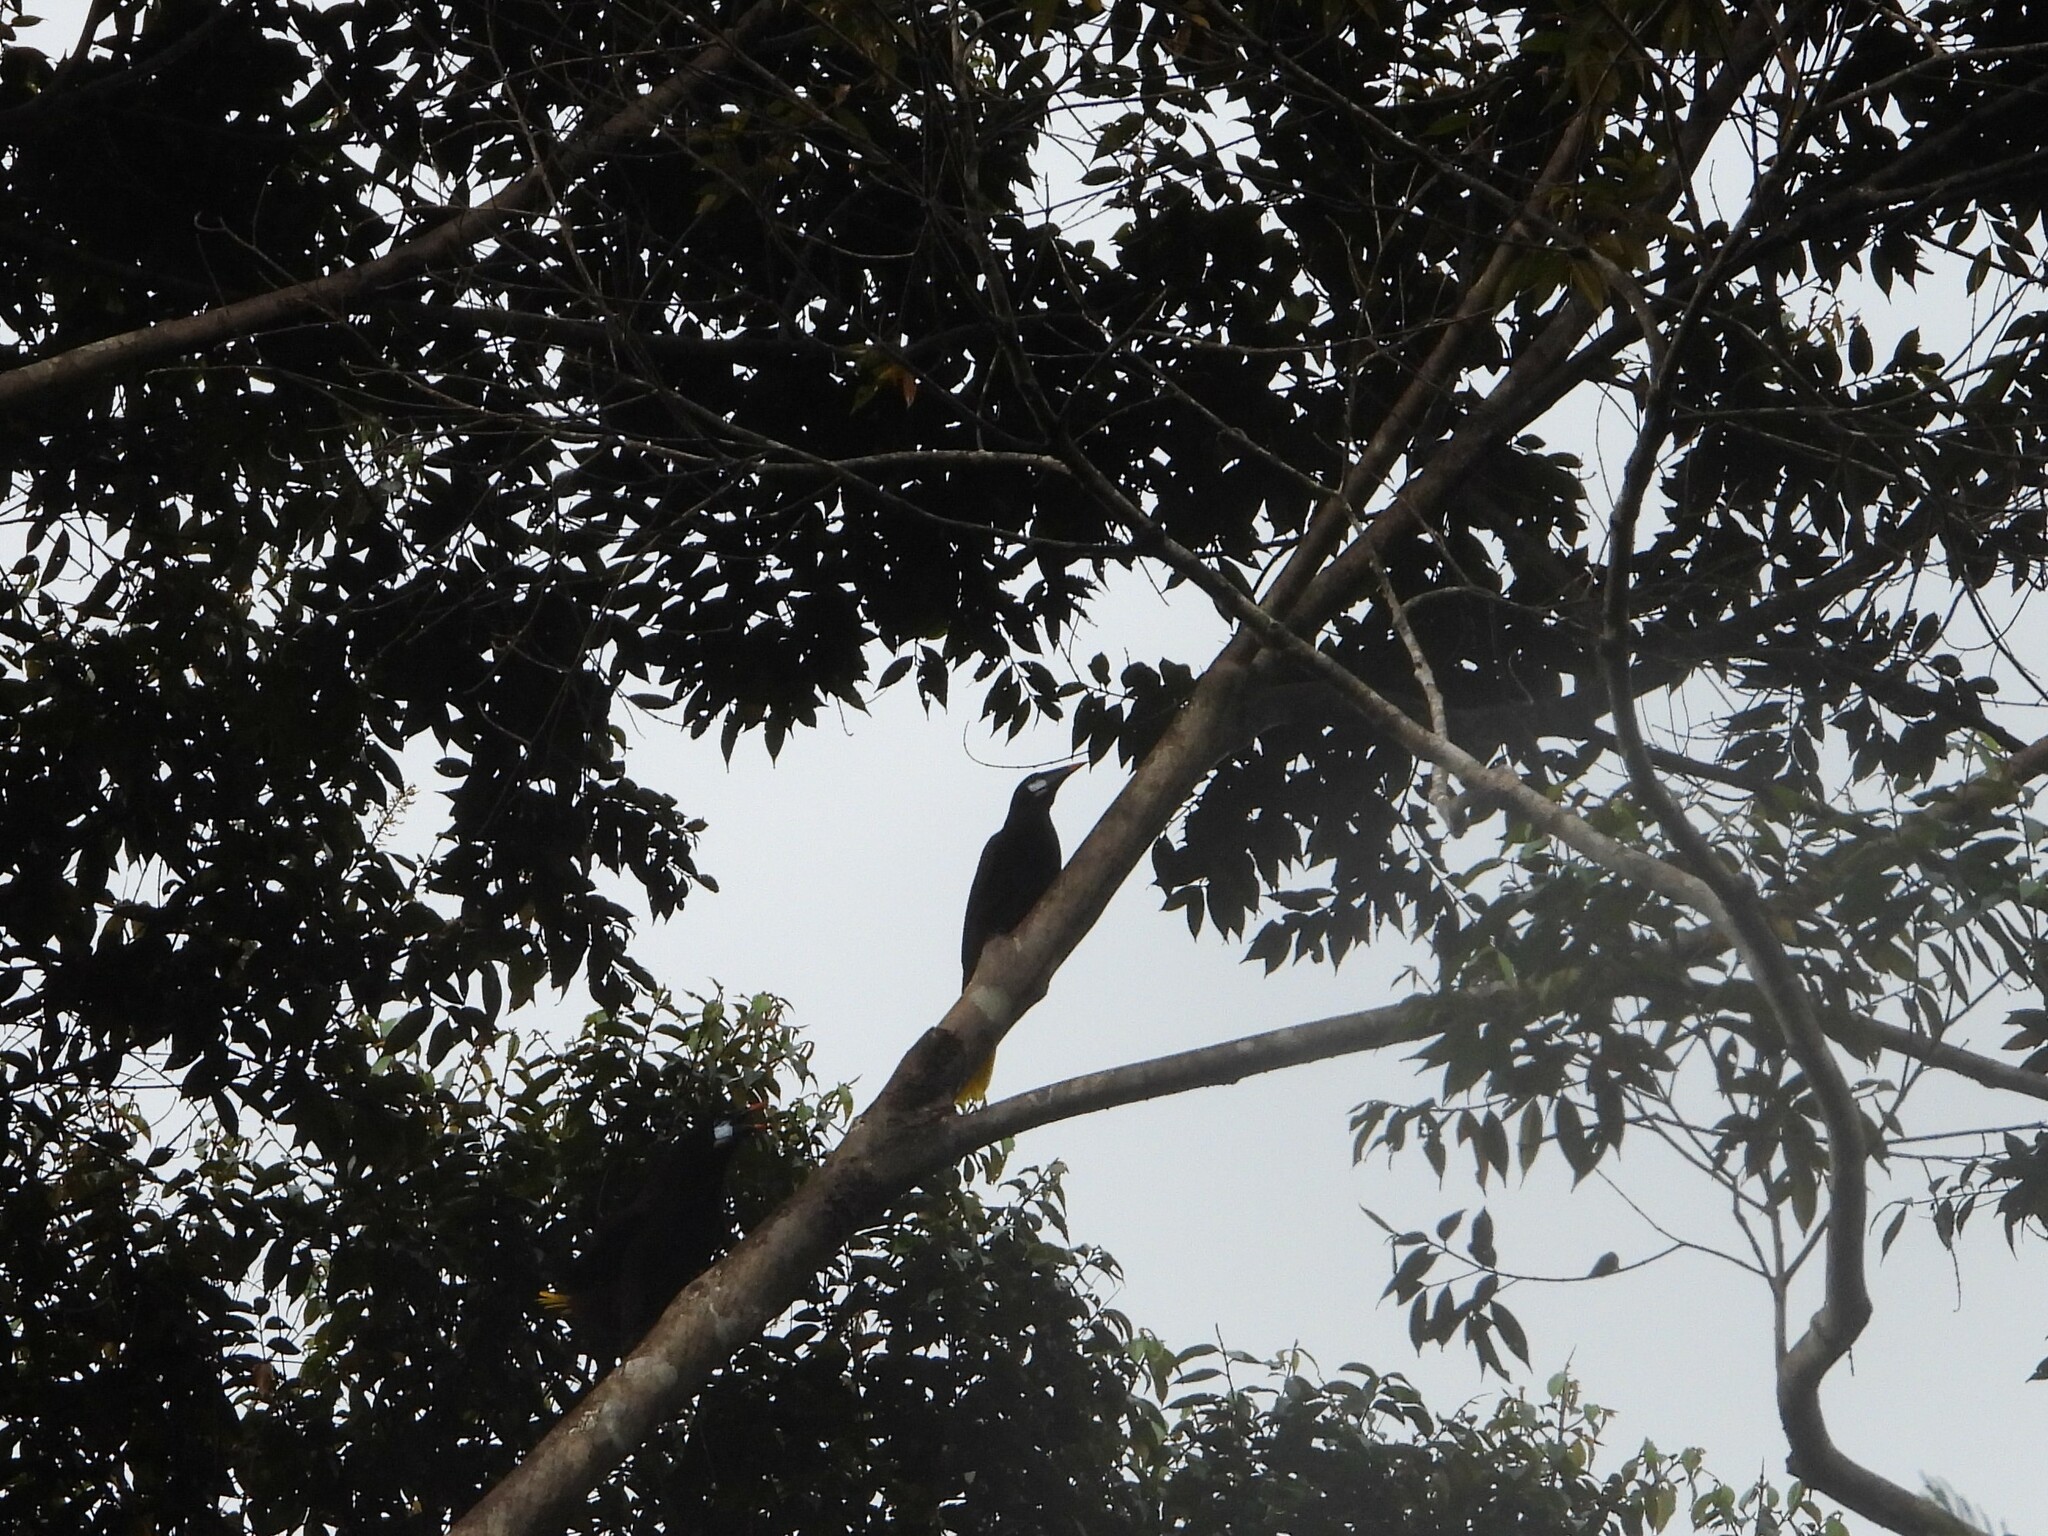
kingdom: Animalia
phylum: Chordata
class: Aves
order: Passeriformes
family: Icteridae
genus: Psarocolius
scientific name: Psarocolius montezuma
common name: Montezuma oropendola
